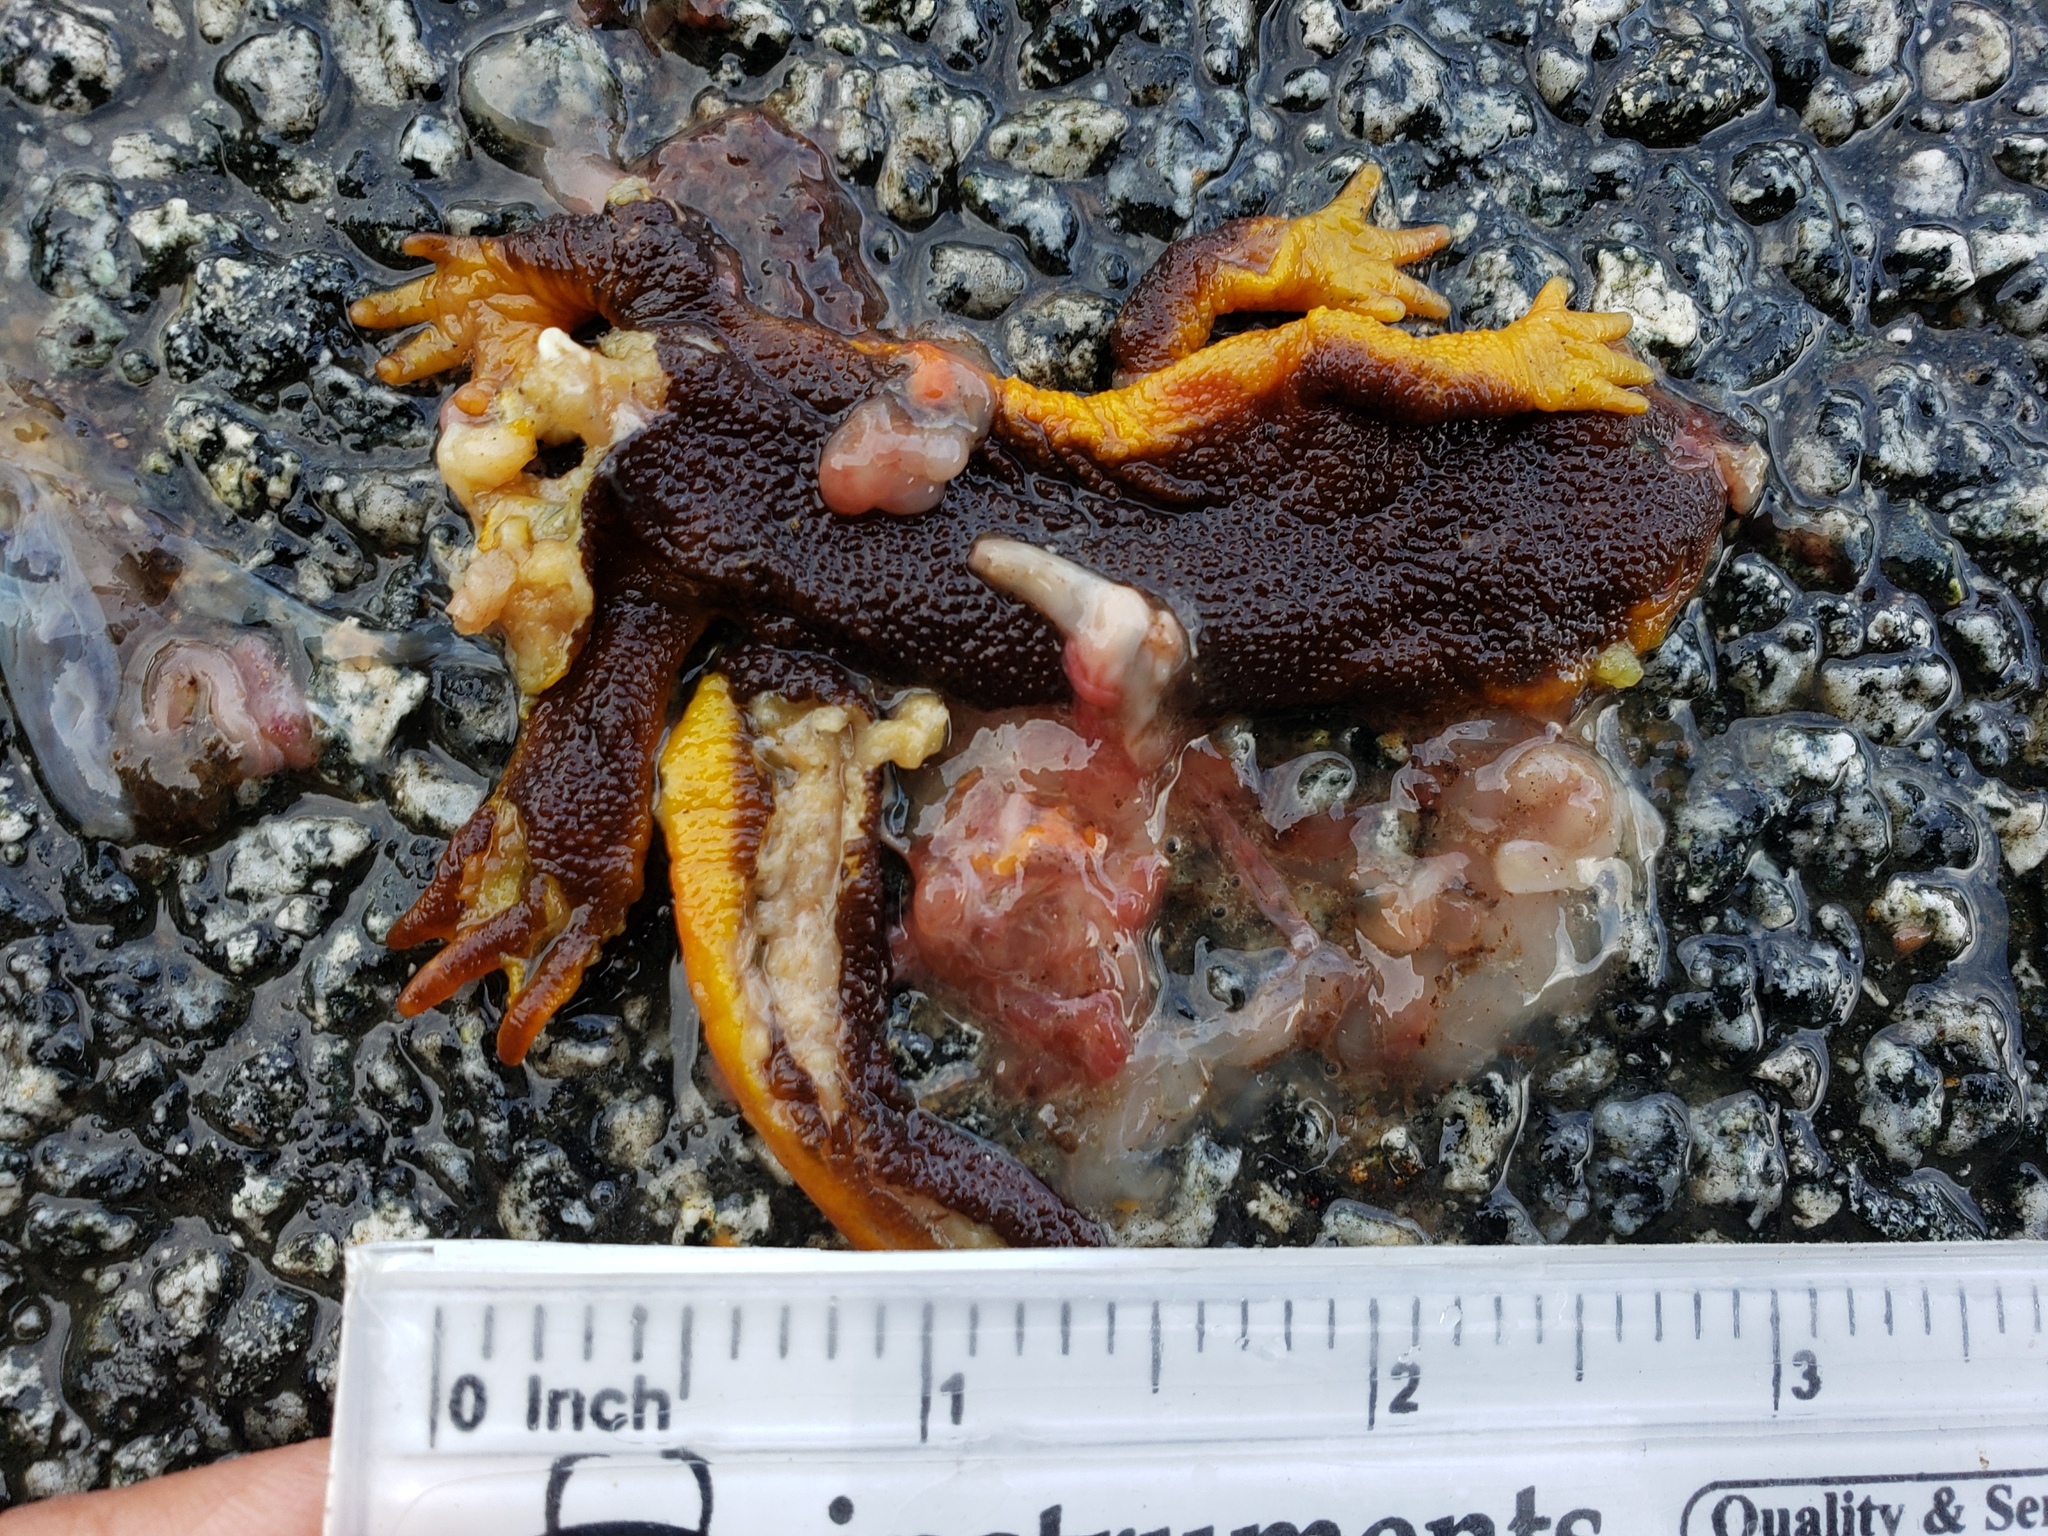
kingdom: Animalia
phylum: Chordata
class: Amphibia
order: Caudata
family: Salamandridae
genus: Taricha
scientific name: Taricha
